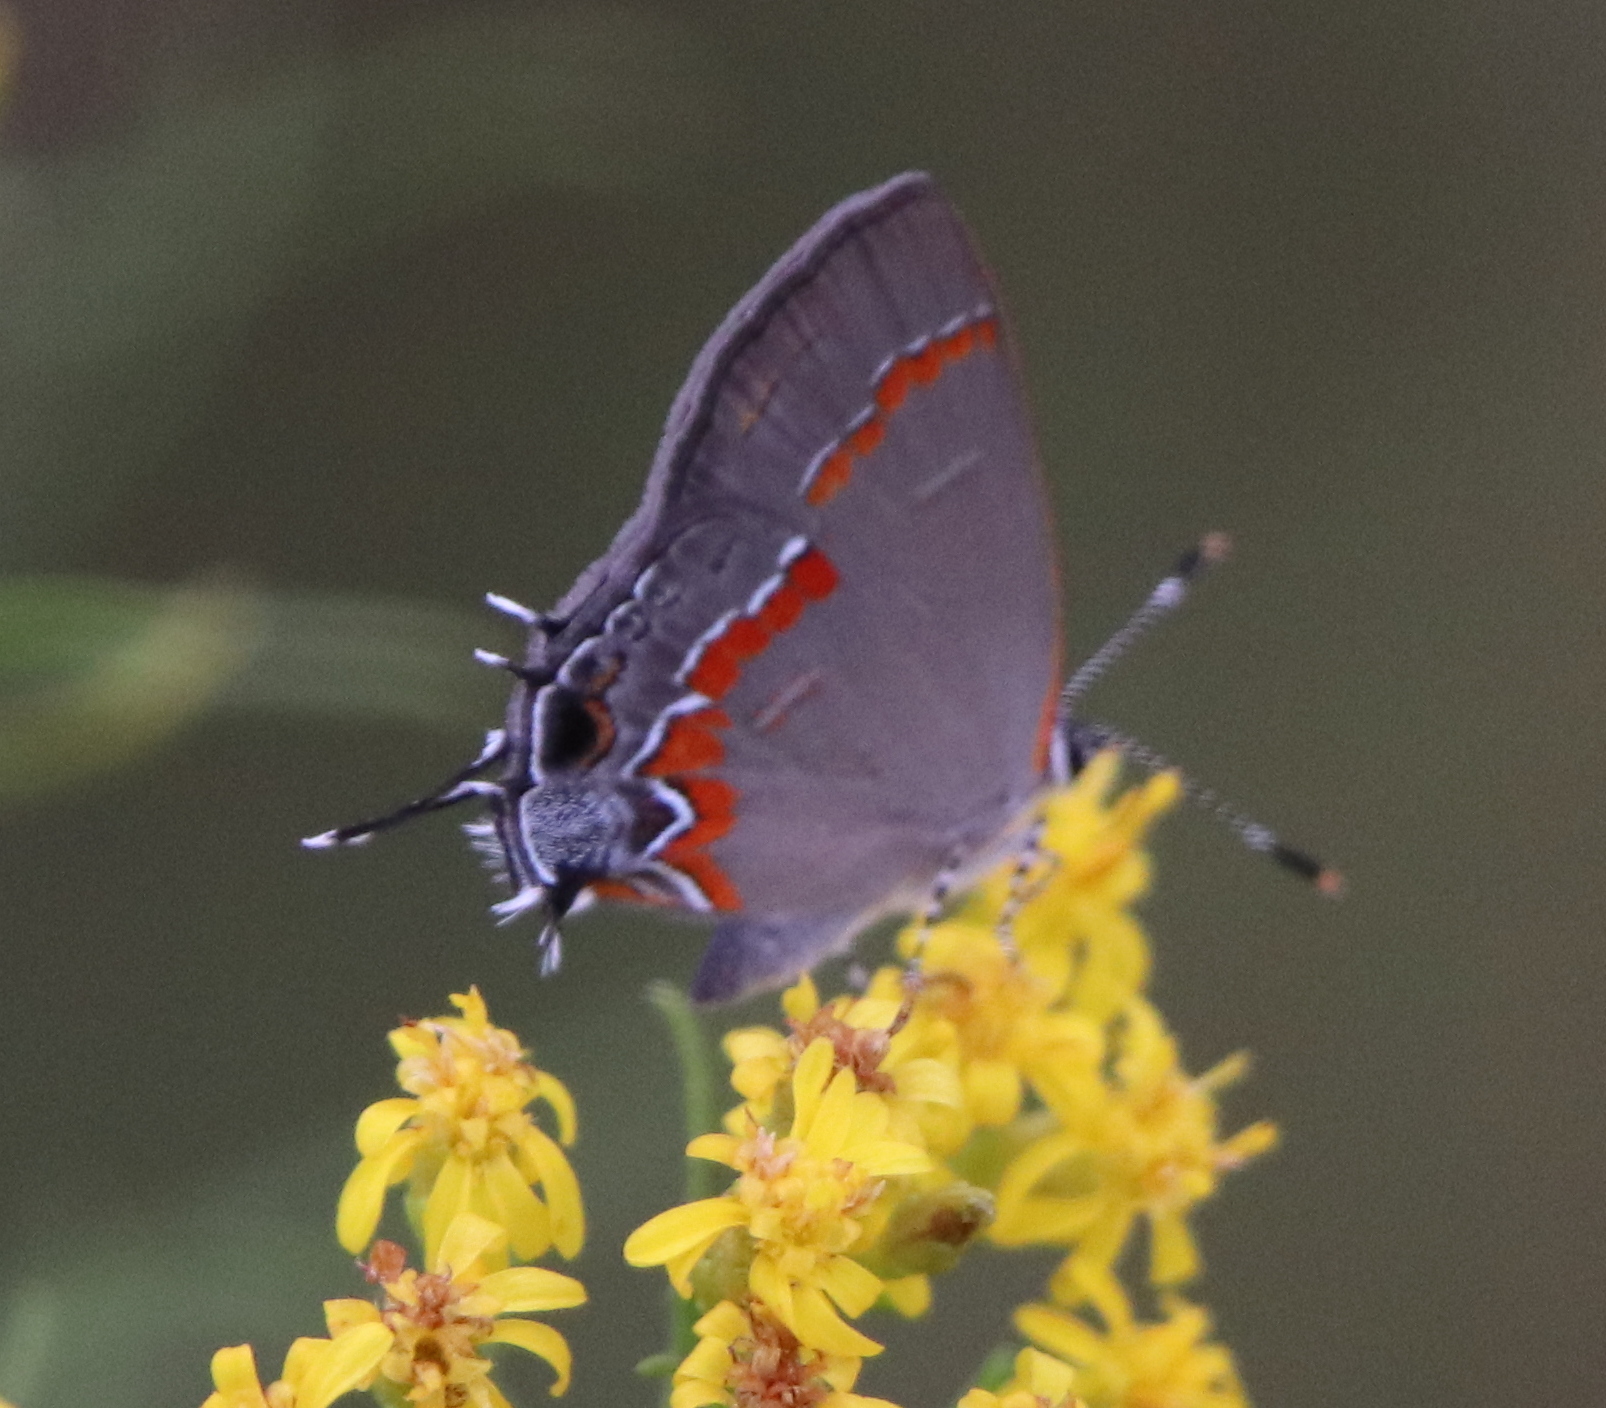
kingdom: Animalia
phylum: Arthropoda
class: Insecta
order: Lepidoptera
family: Lycaenidae
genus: Calycopis
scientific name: Calycopis cecrops
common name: Red-banded hairstreak
